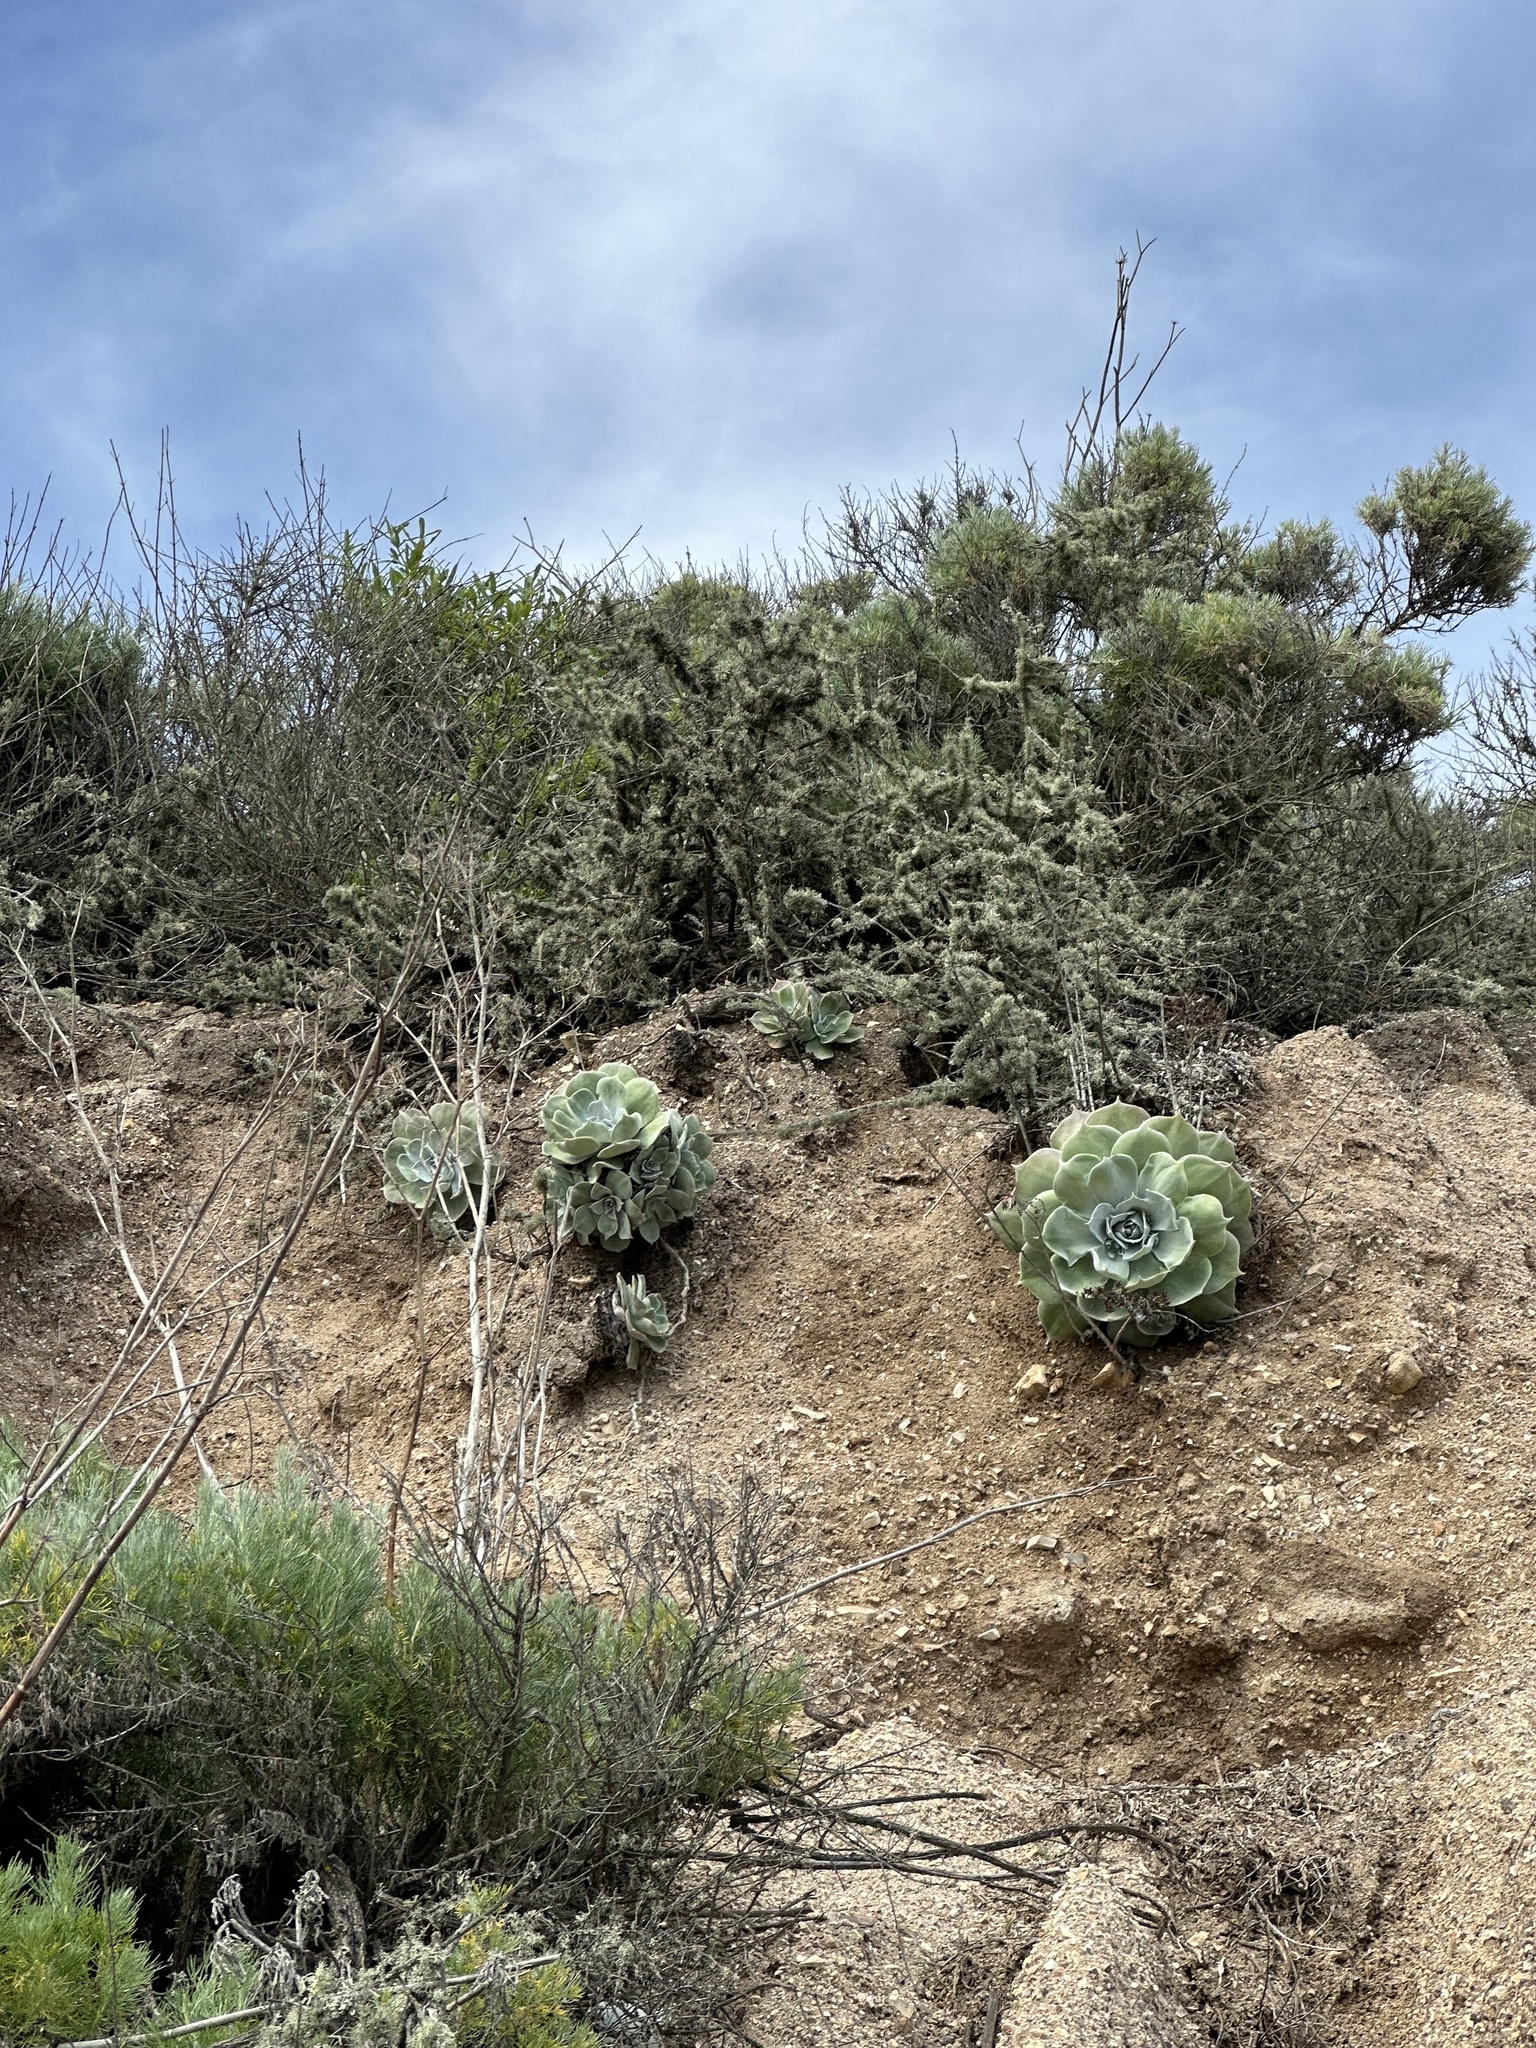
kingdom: Plantae
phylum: Tracheophyta
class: Magnoliopsida
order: Saxifragales
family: Crassulaceae
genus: Dudleya
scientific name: Dudleya pulverulenta
